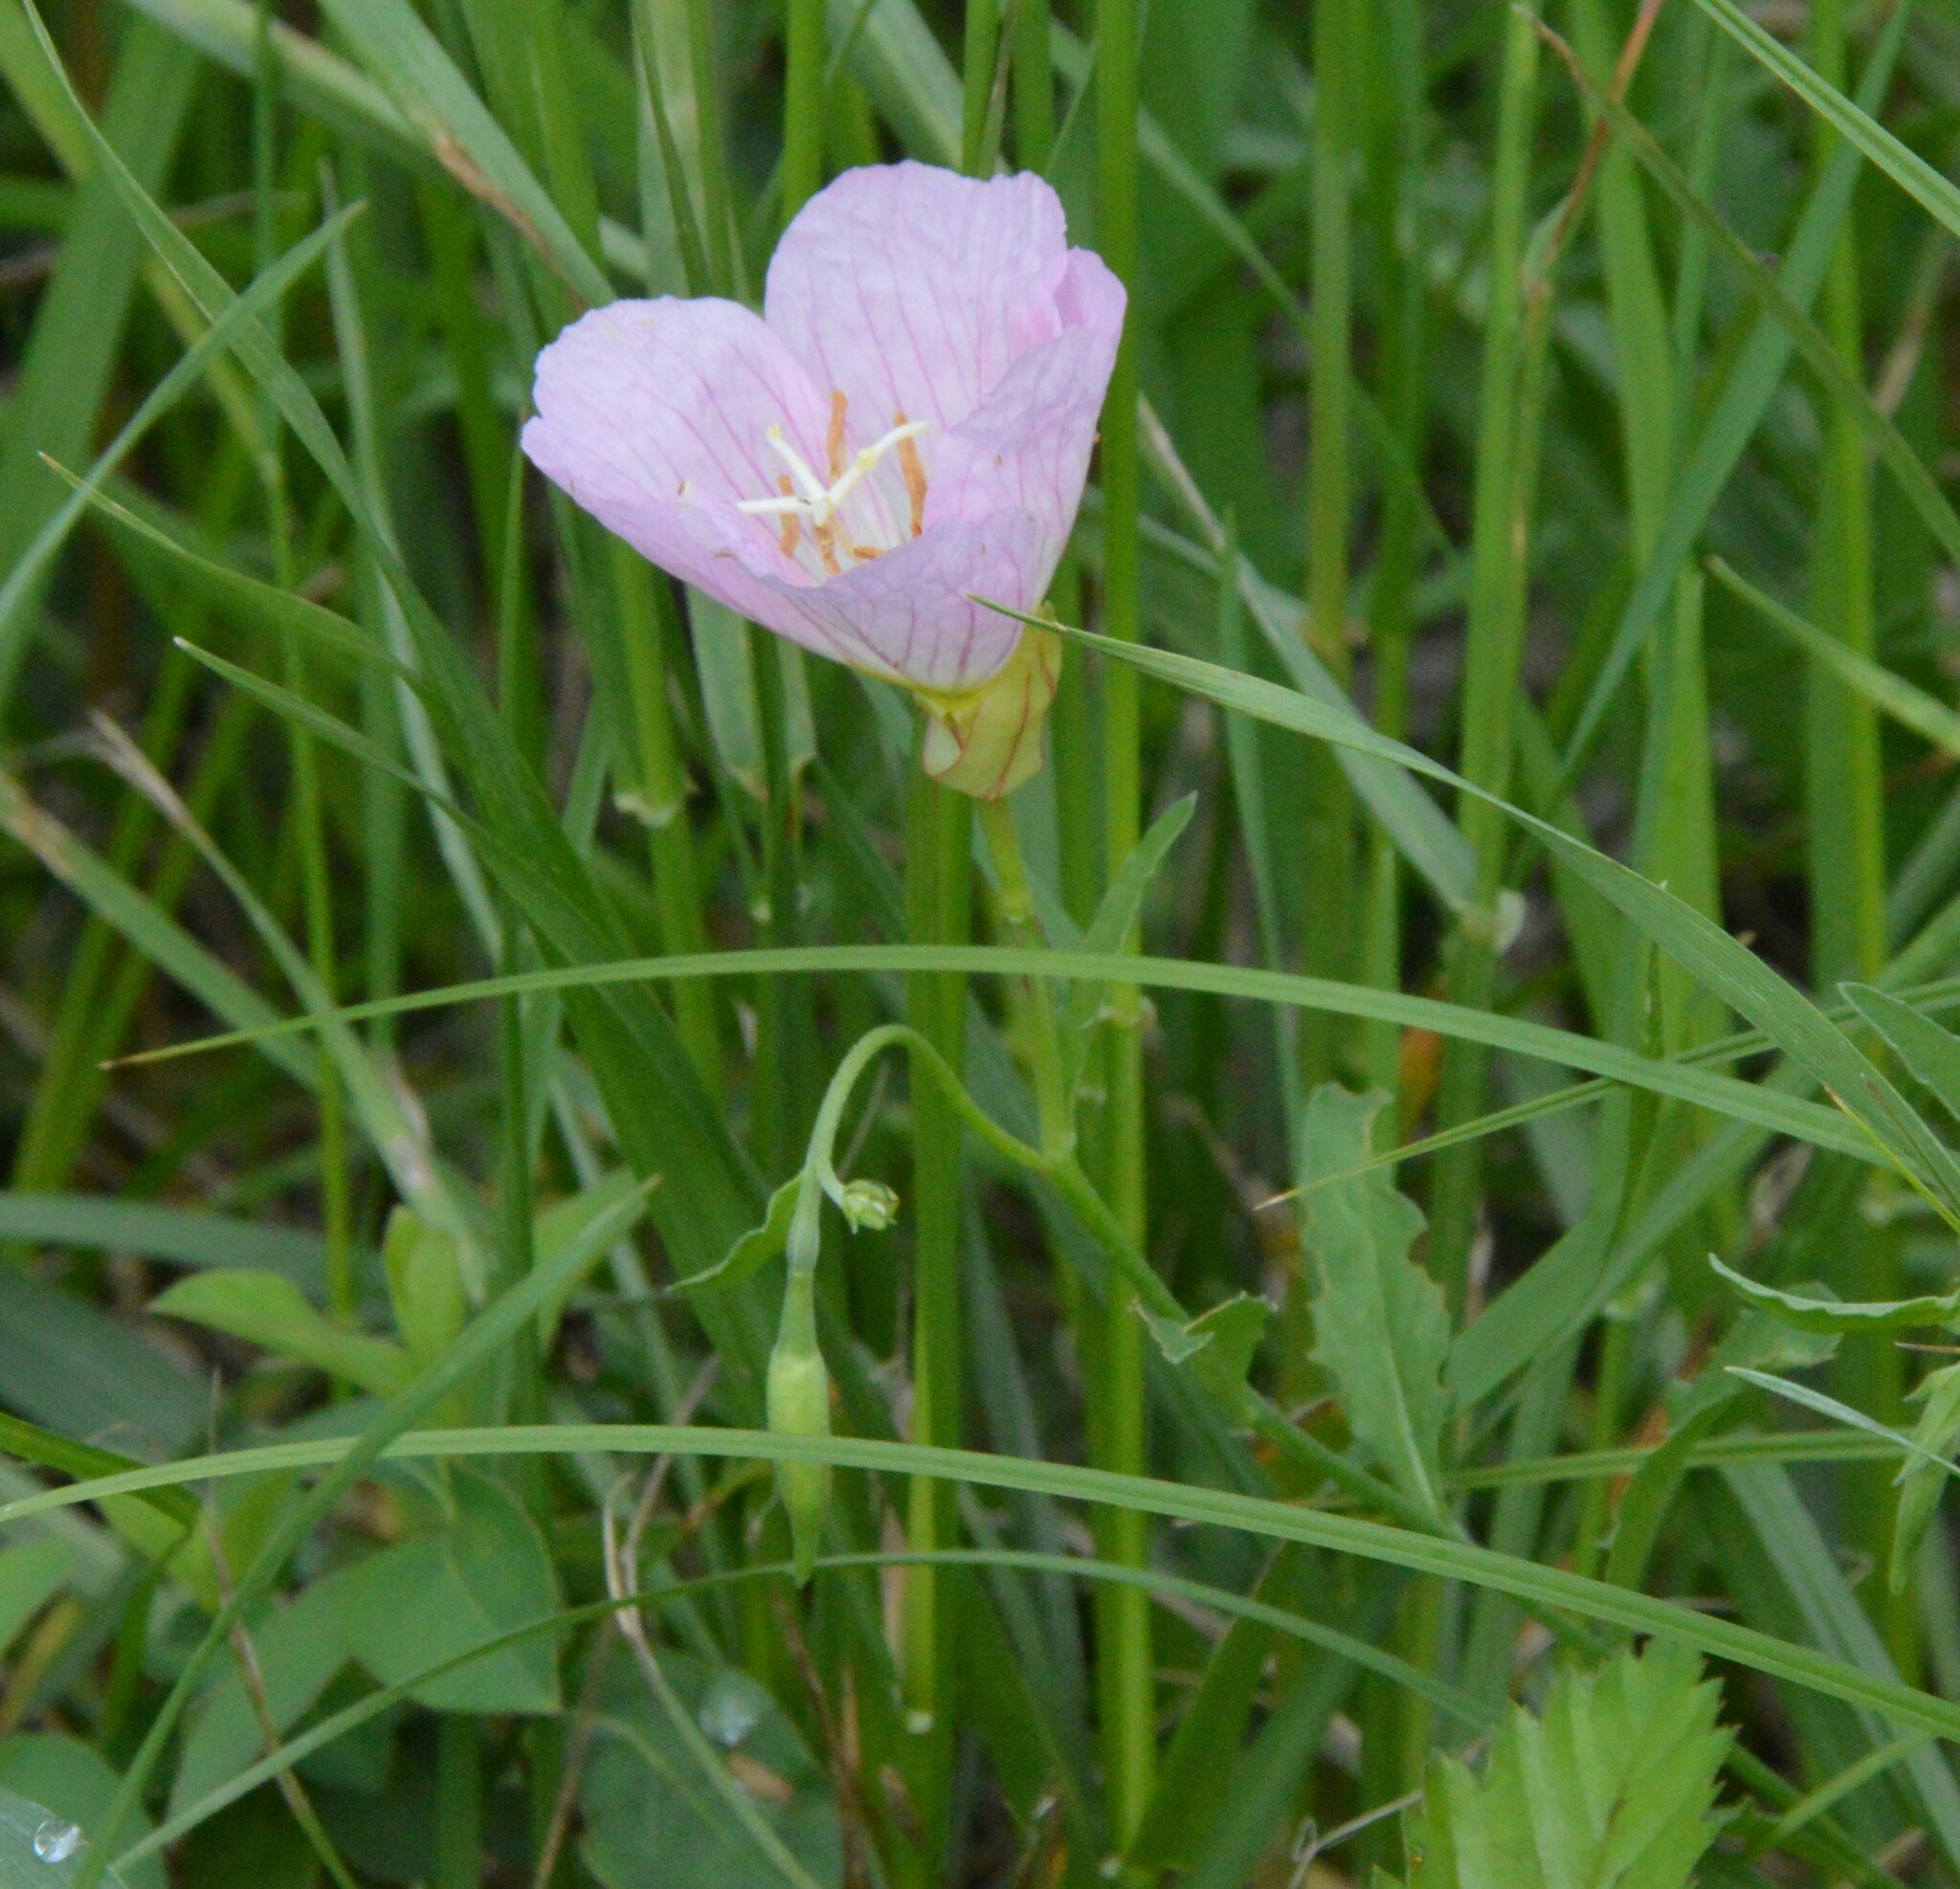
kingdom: Plantae
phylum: Tracheophyta
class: Magnoliopsida
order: Myrtales
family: Onagraceae
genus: Oenothera
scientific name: Oenothera speciosa
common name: White evening-primrose
